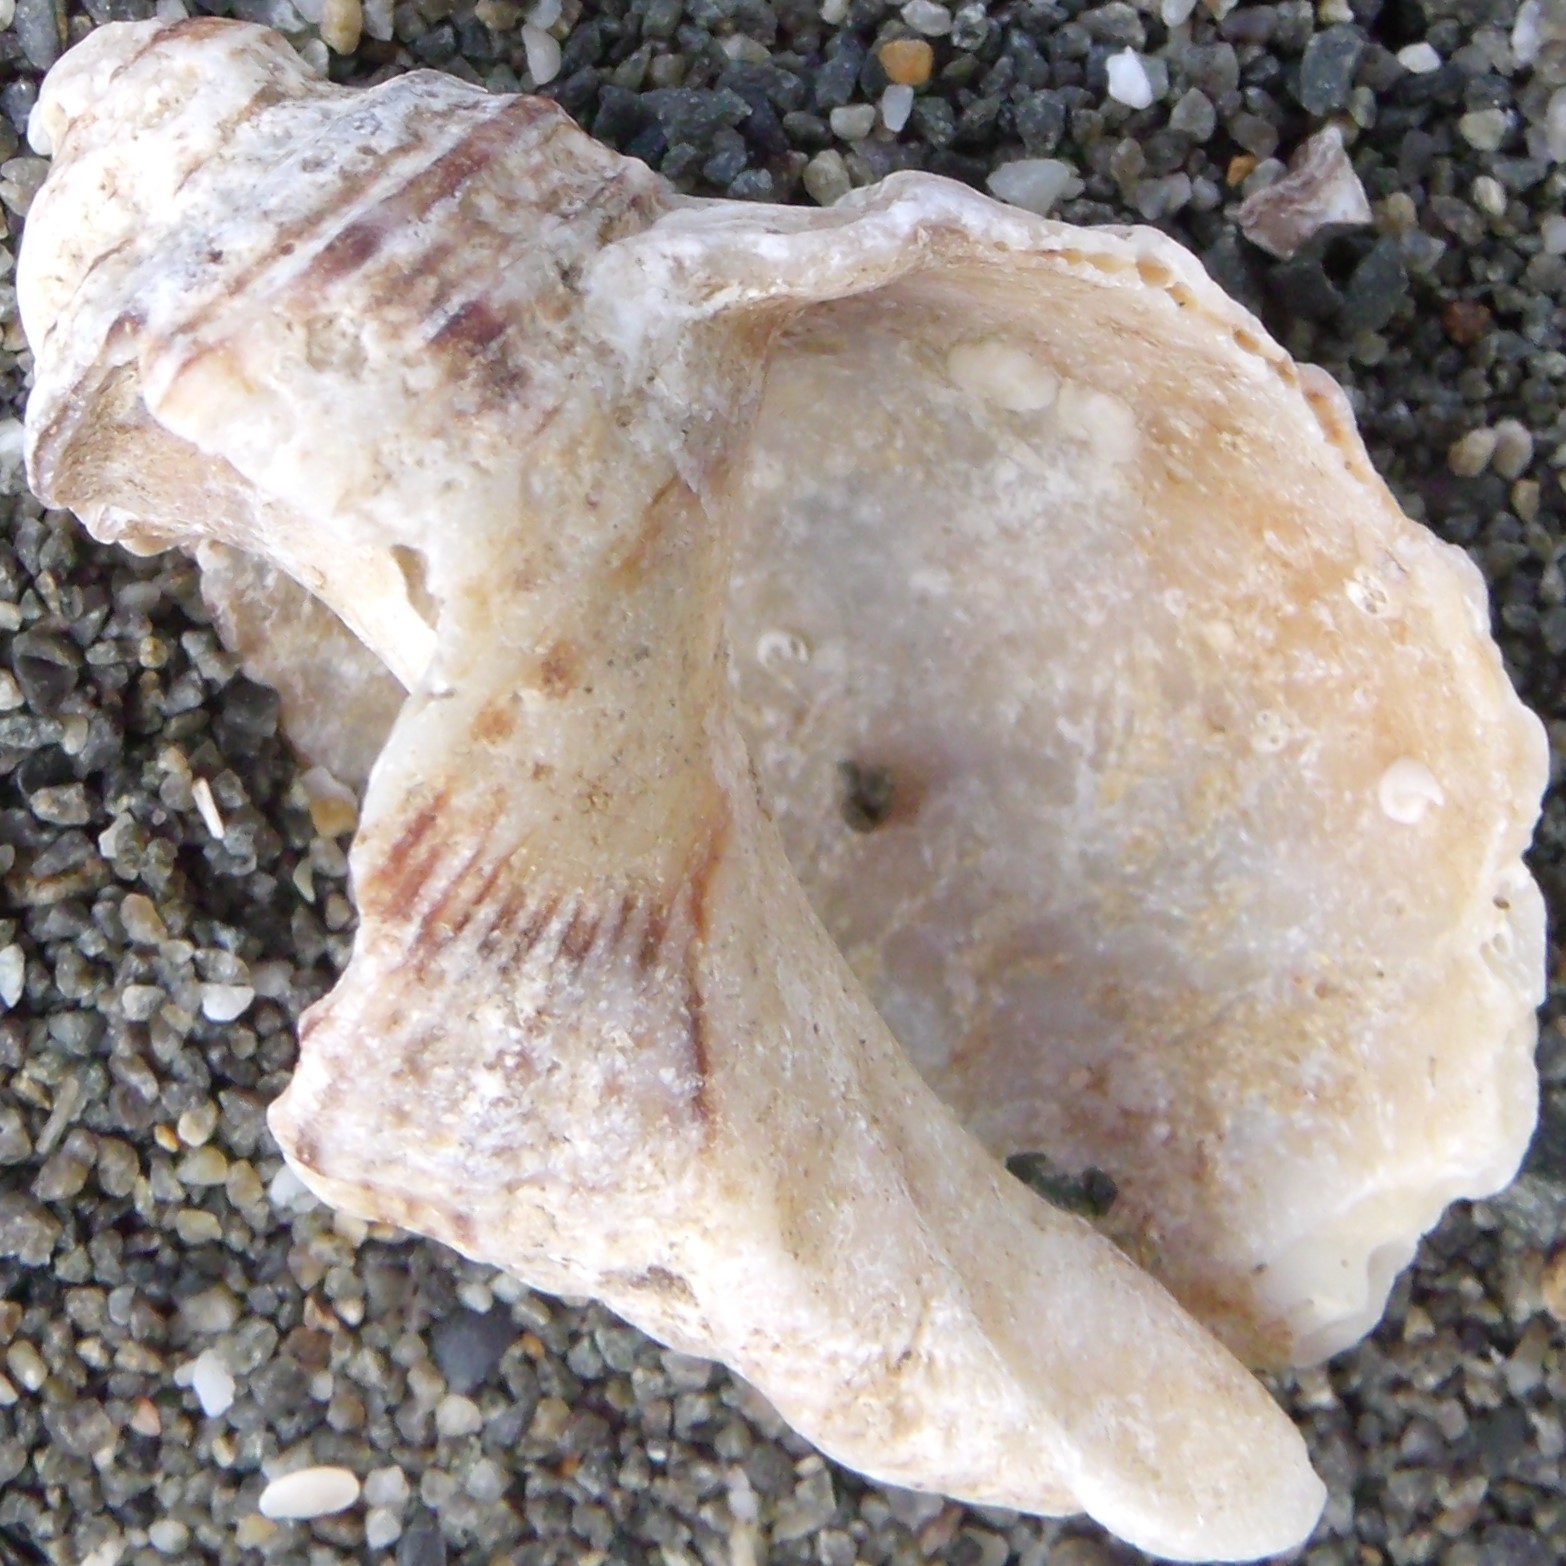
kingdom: Animalia
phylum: Mollusca
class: Gastropoda
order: Neogastropoda
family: Muricidae
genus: Dicathais
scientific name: Dicathais orbita
